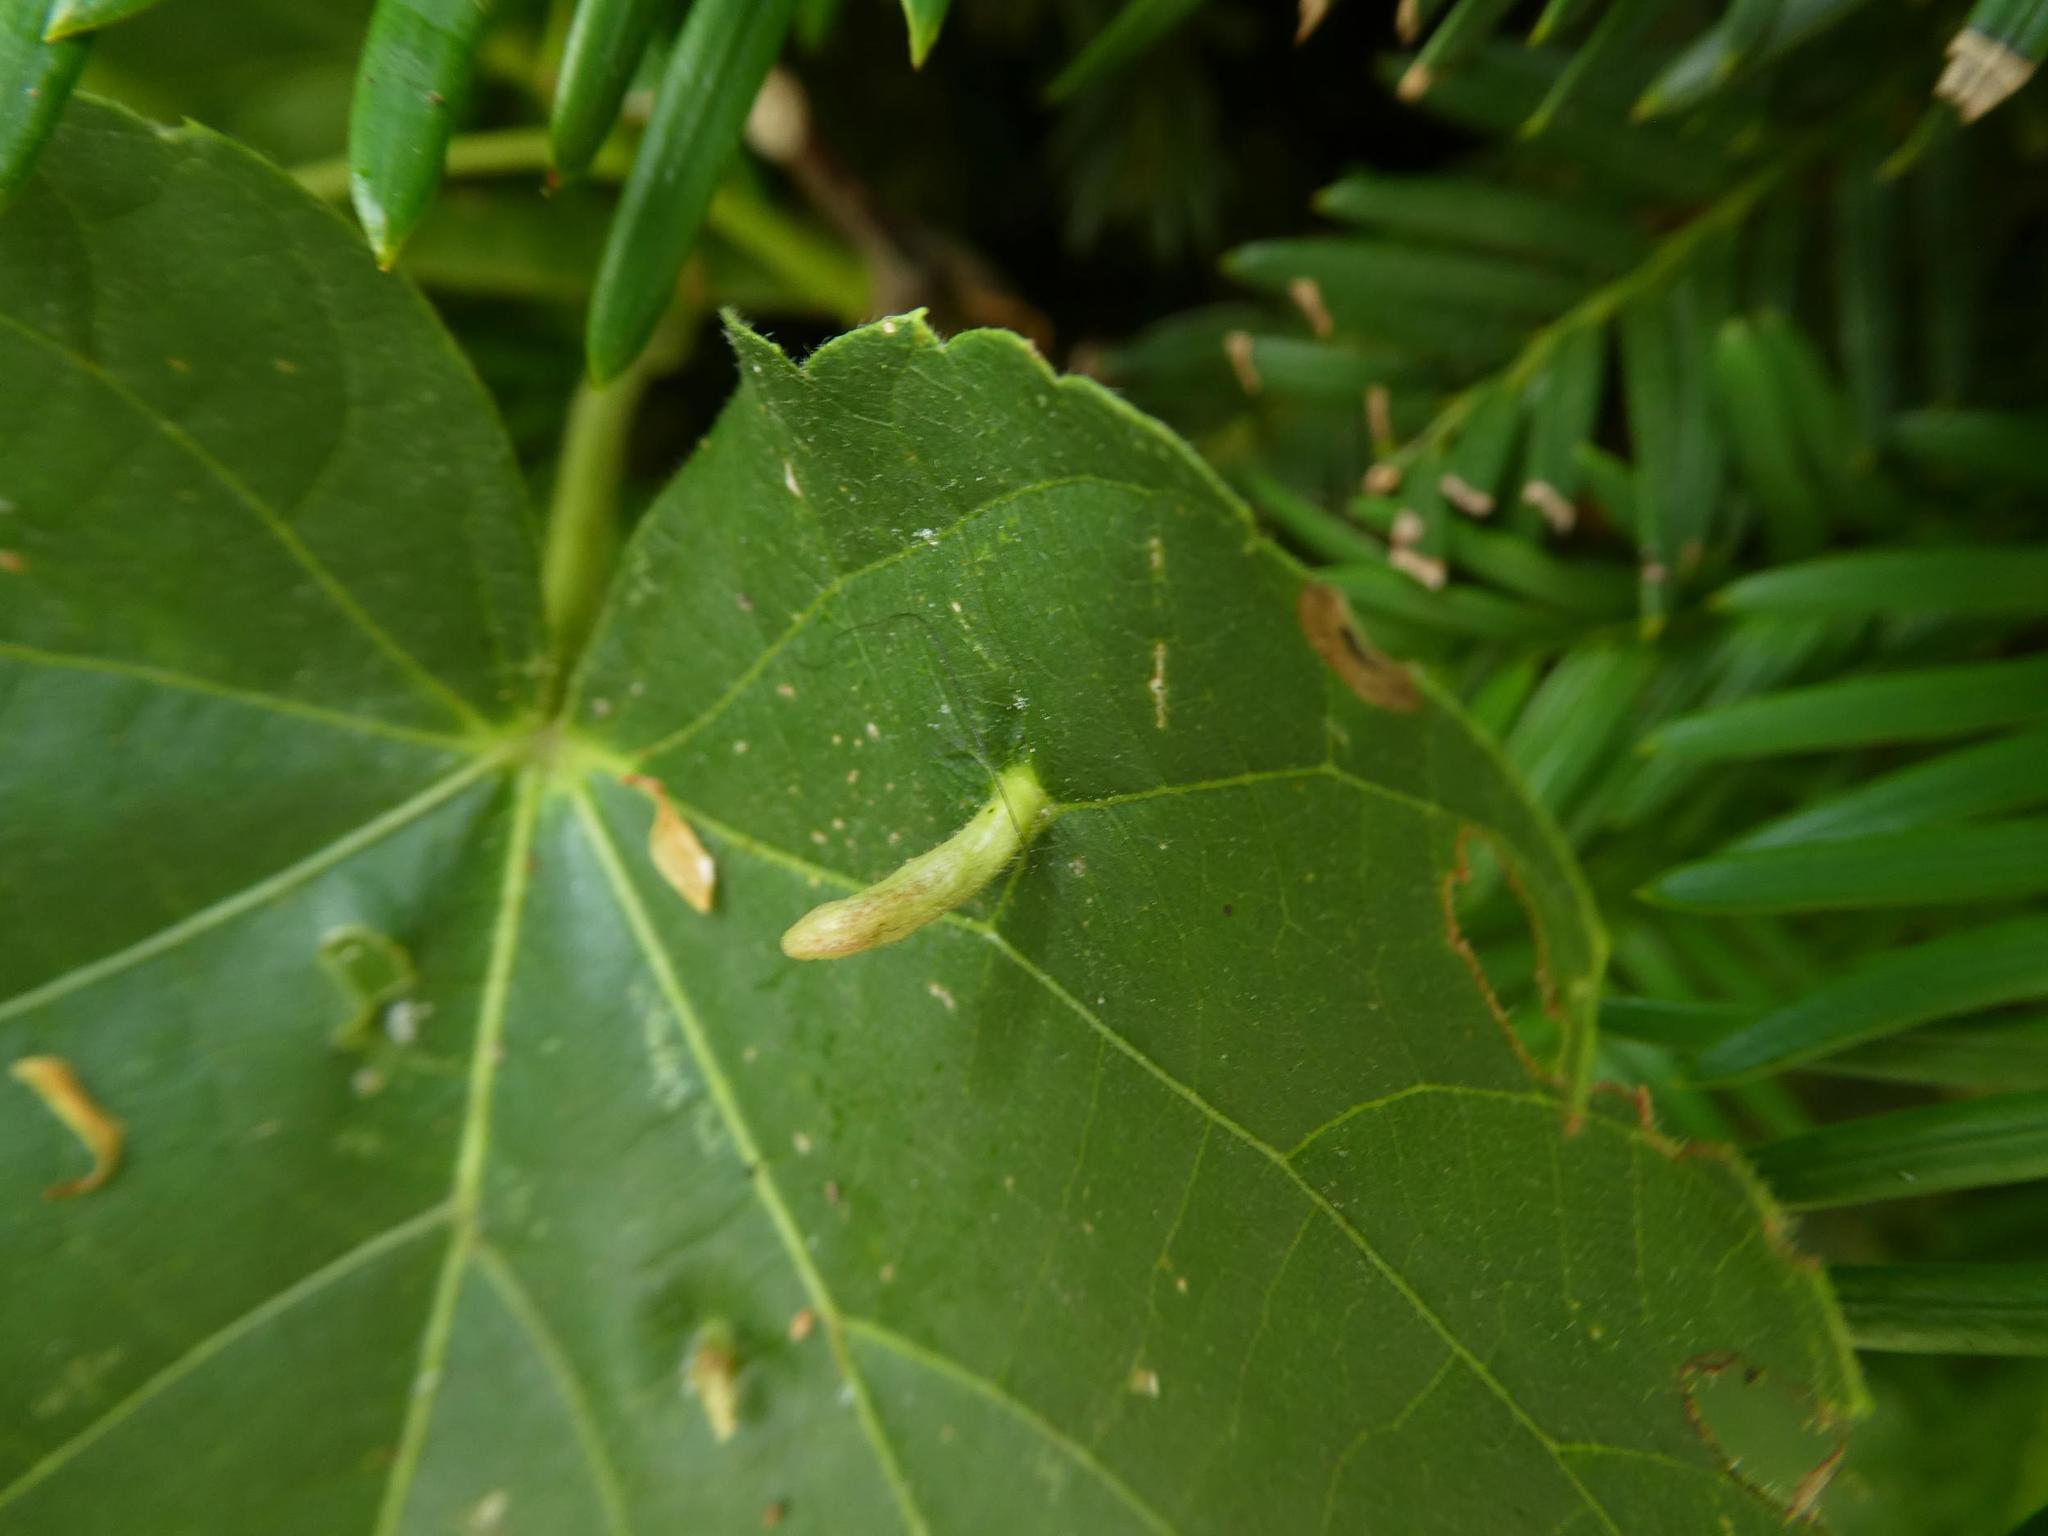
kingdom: Animalia
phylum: Arthropoda
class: Arachnida
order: Trombidiformes
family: Eriophyidae
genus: Eriophyes
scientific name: Eriophyes tiliae
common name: Red nail gall mite
